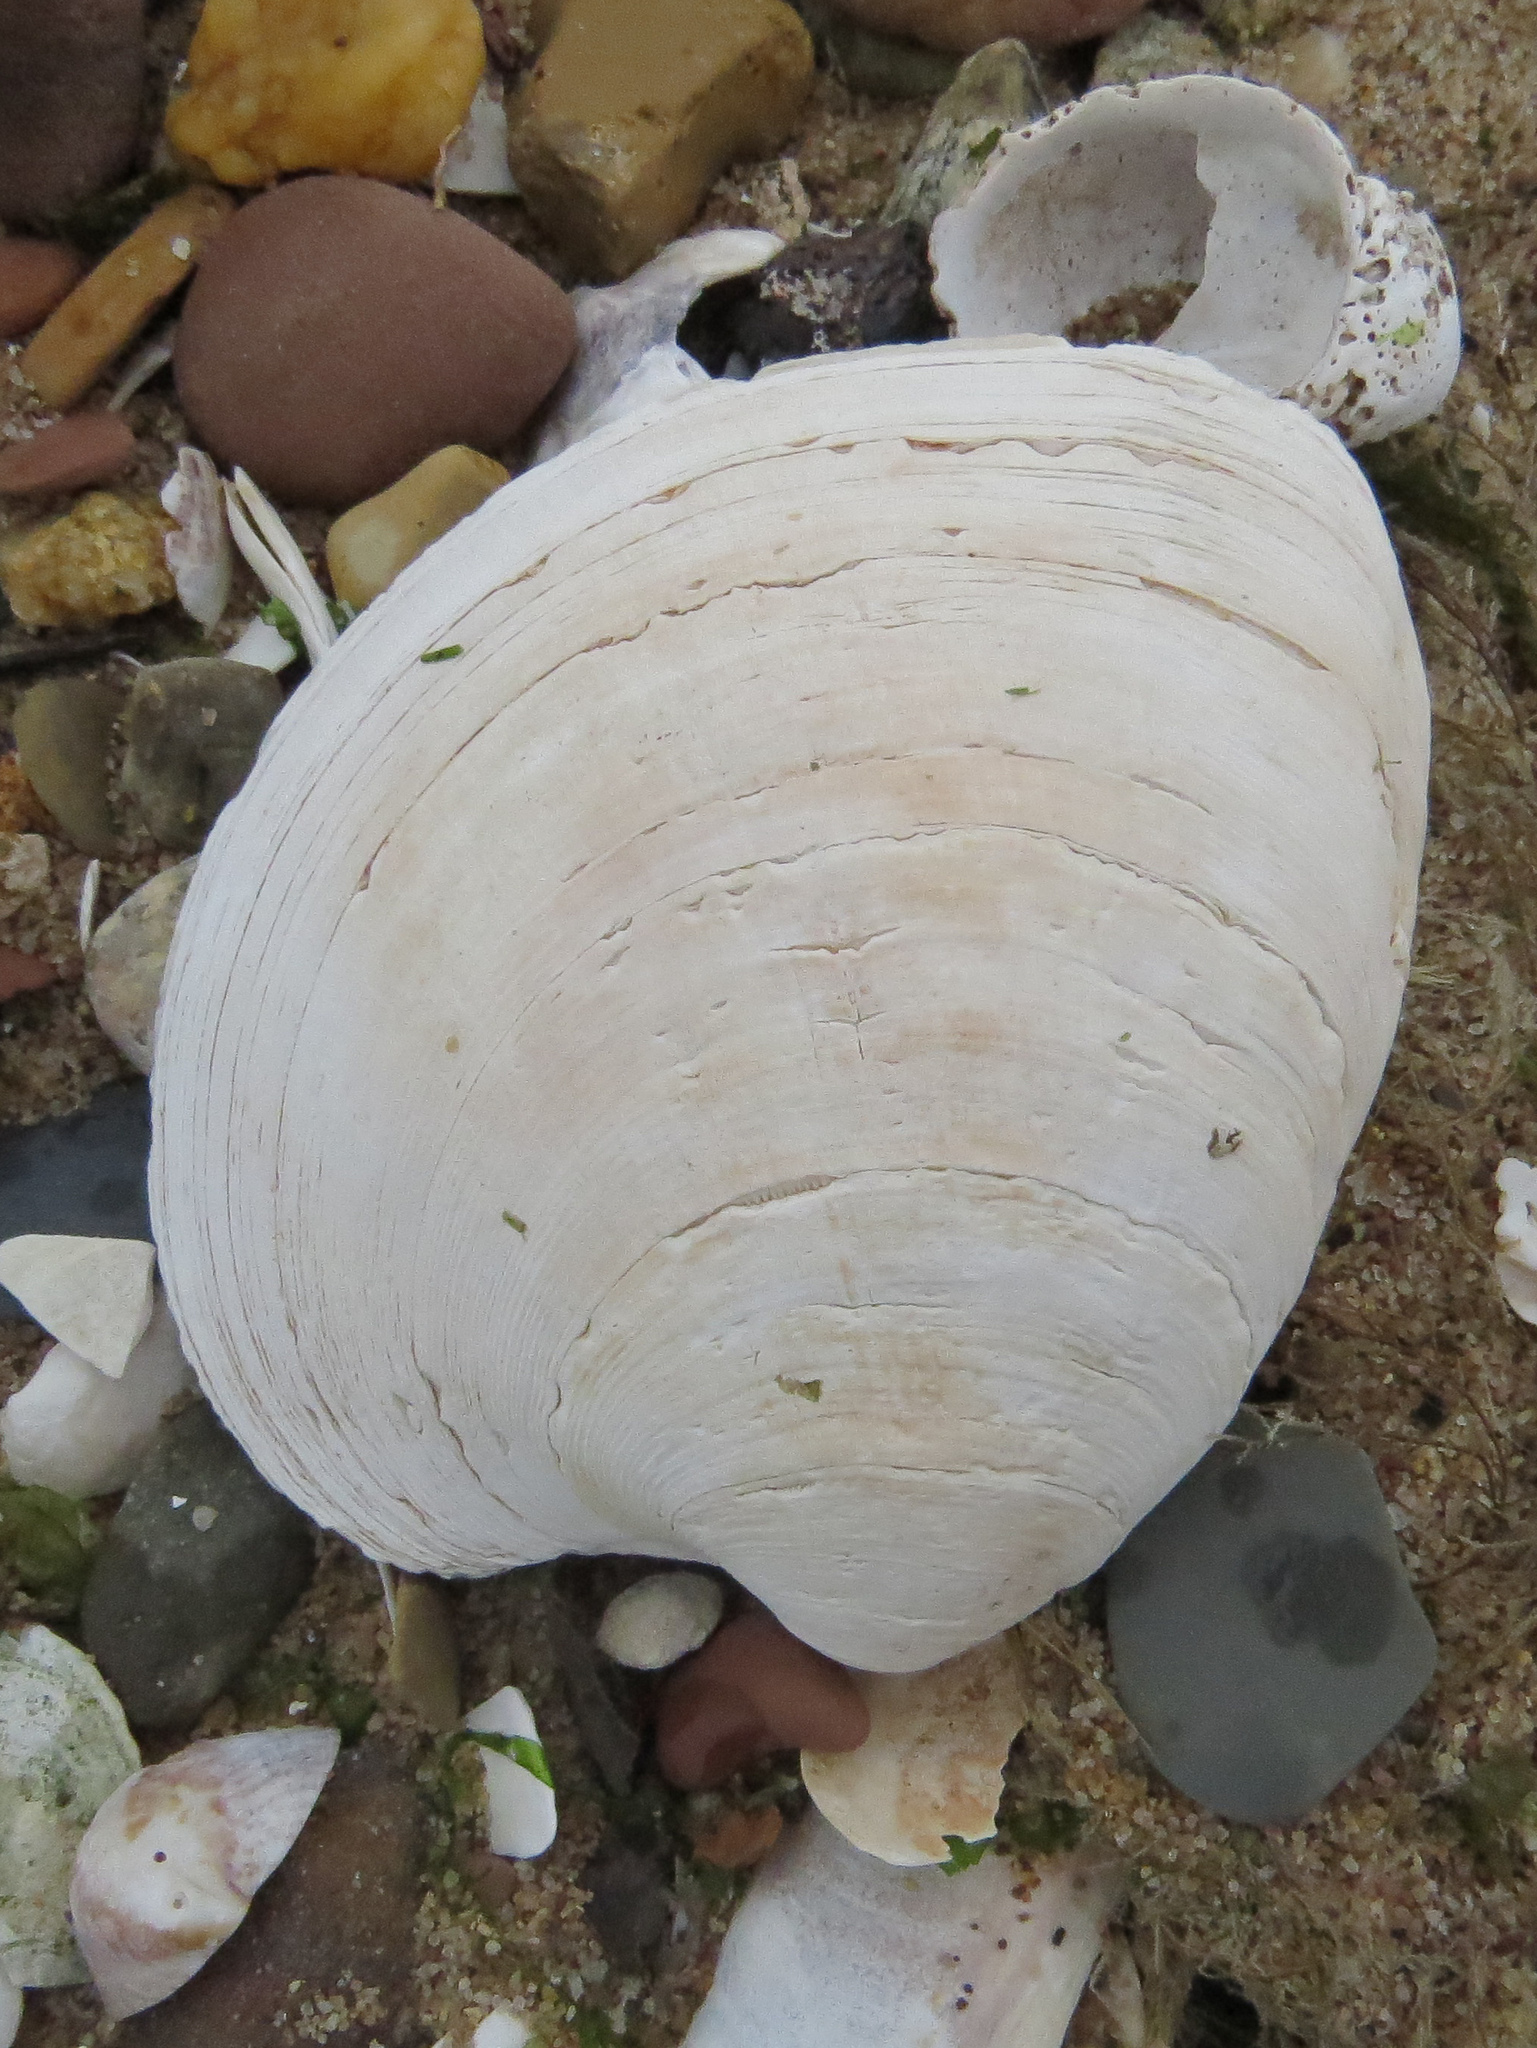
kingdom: Animalia
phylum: Mollusca
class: Bivalvia
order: Venerida
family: Veneridae
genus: Mercenaria
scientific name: Mercenaria mercenaria
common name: American hard-shelled clam
